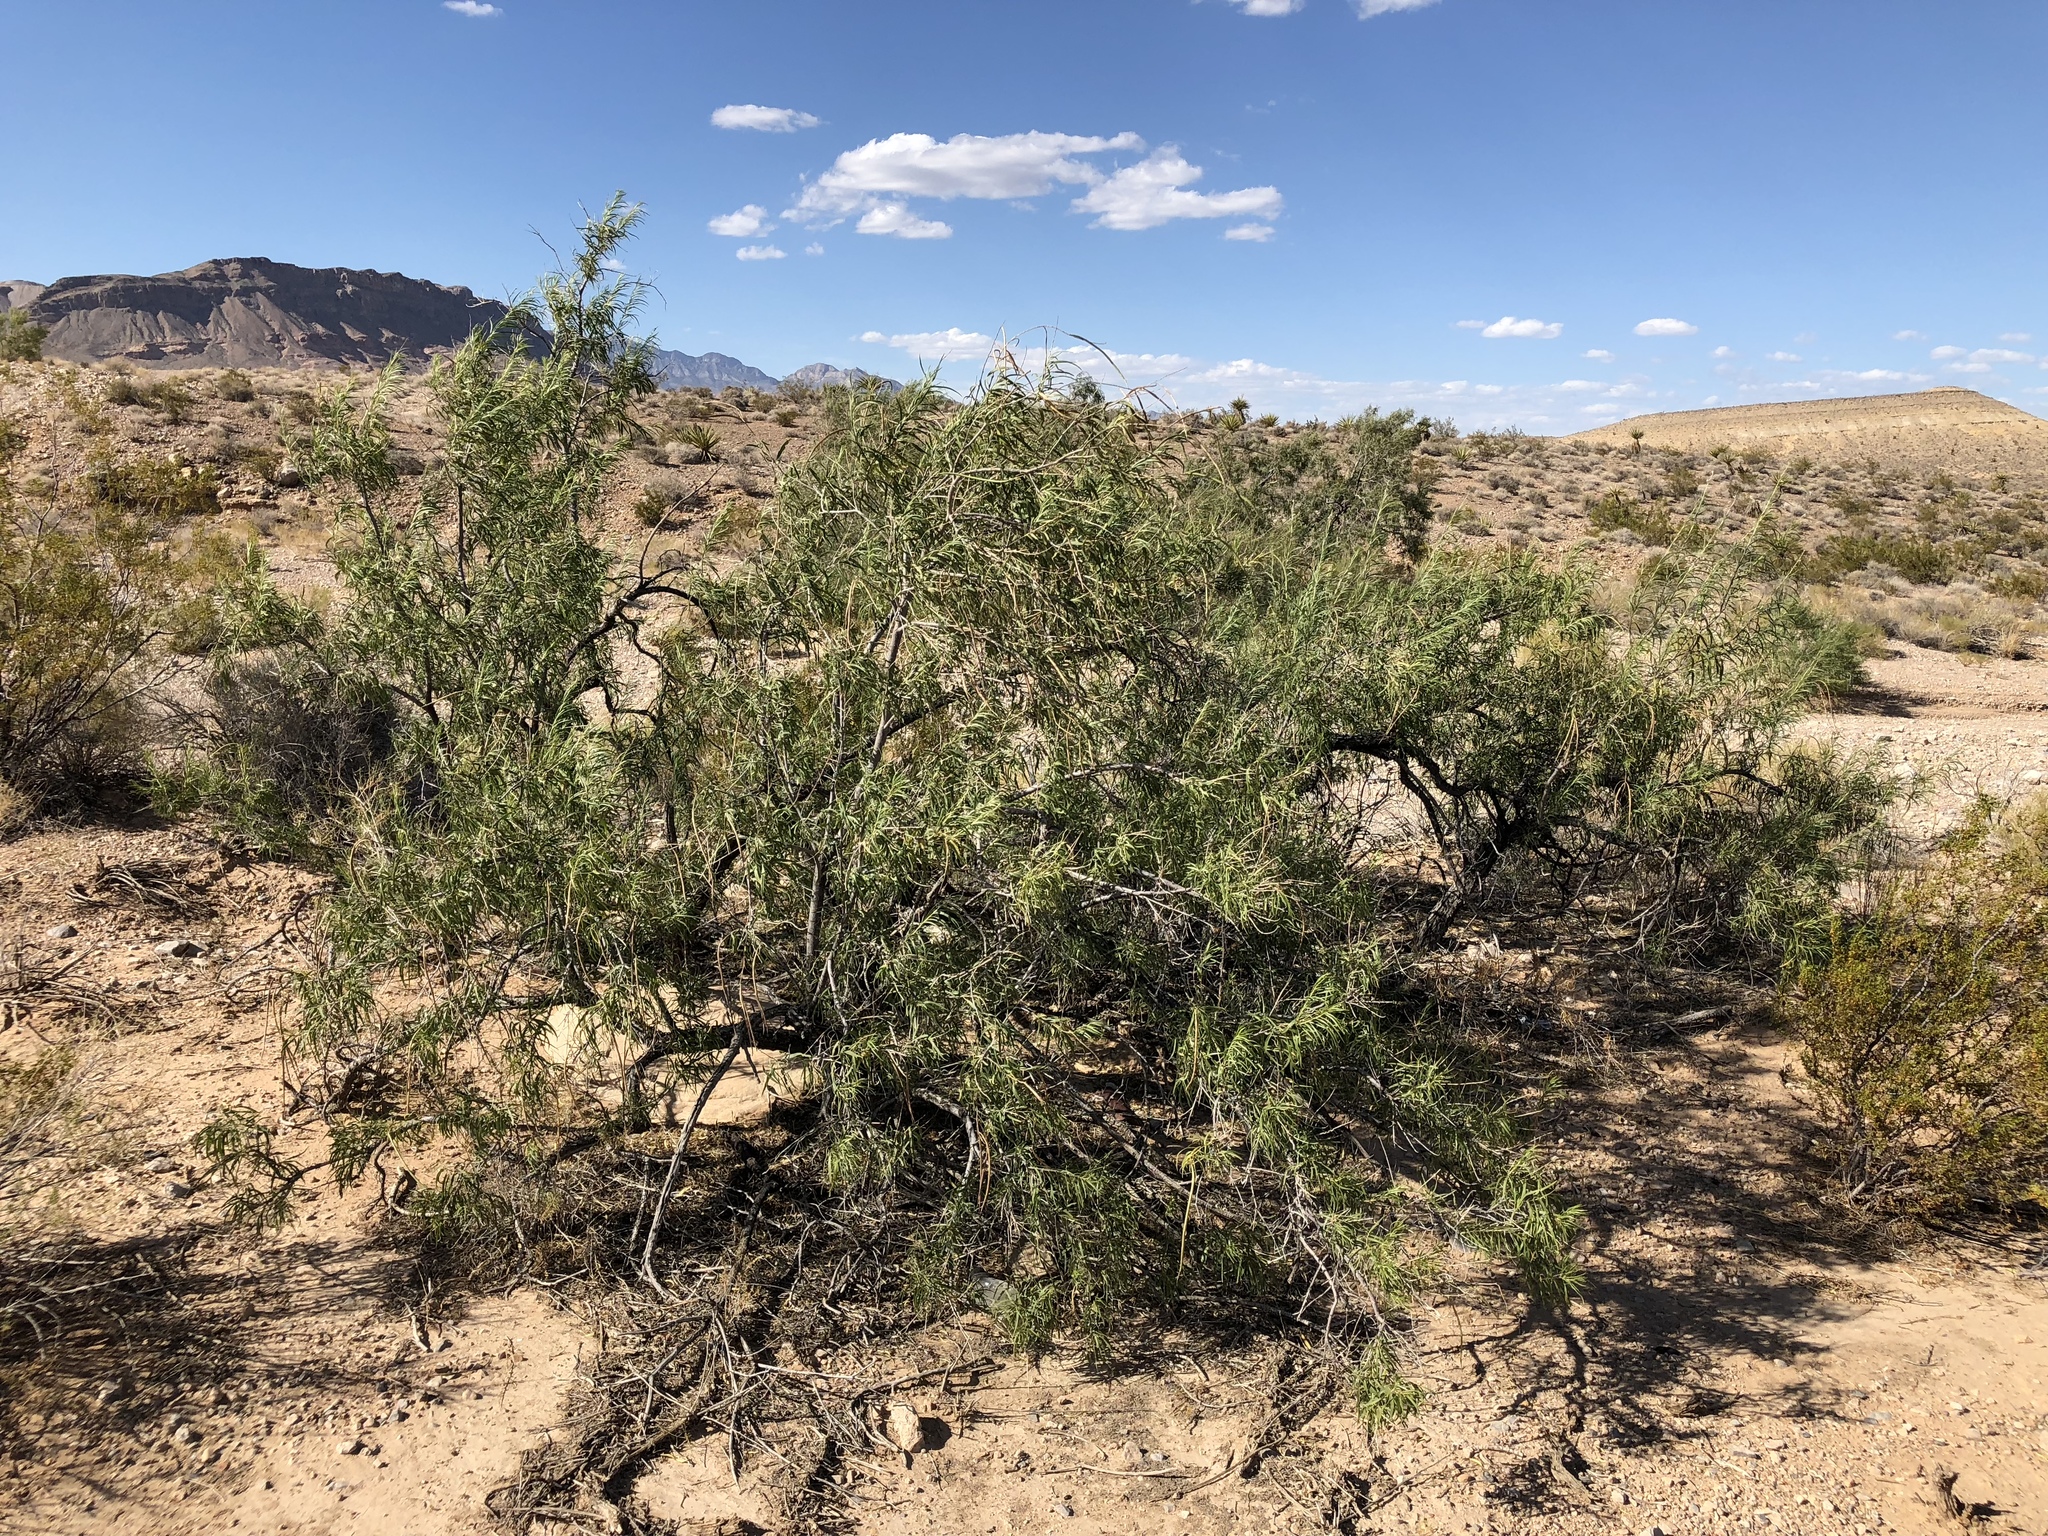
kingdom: Plantae
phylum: Tracheophyta
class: Magnoliopsida
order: Lamiales
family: Bignoniaceae
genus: Chilopsis
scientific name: Chilopsis linearis
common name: Desert-willow
